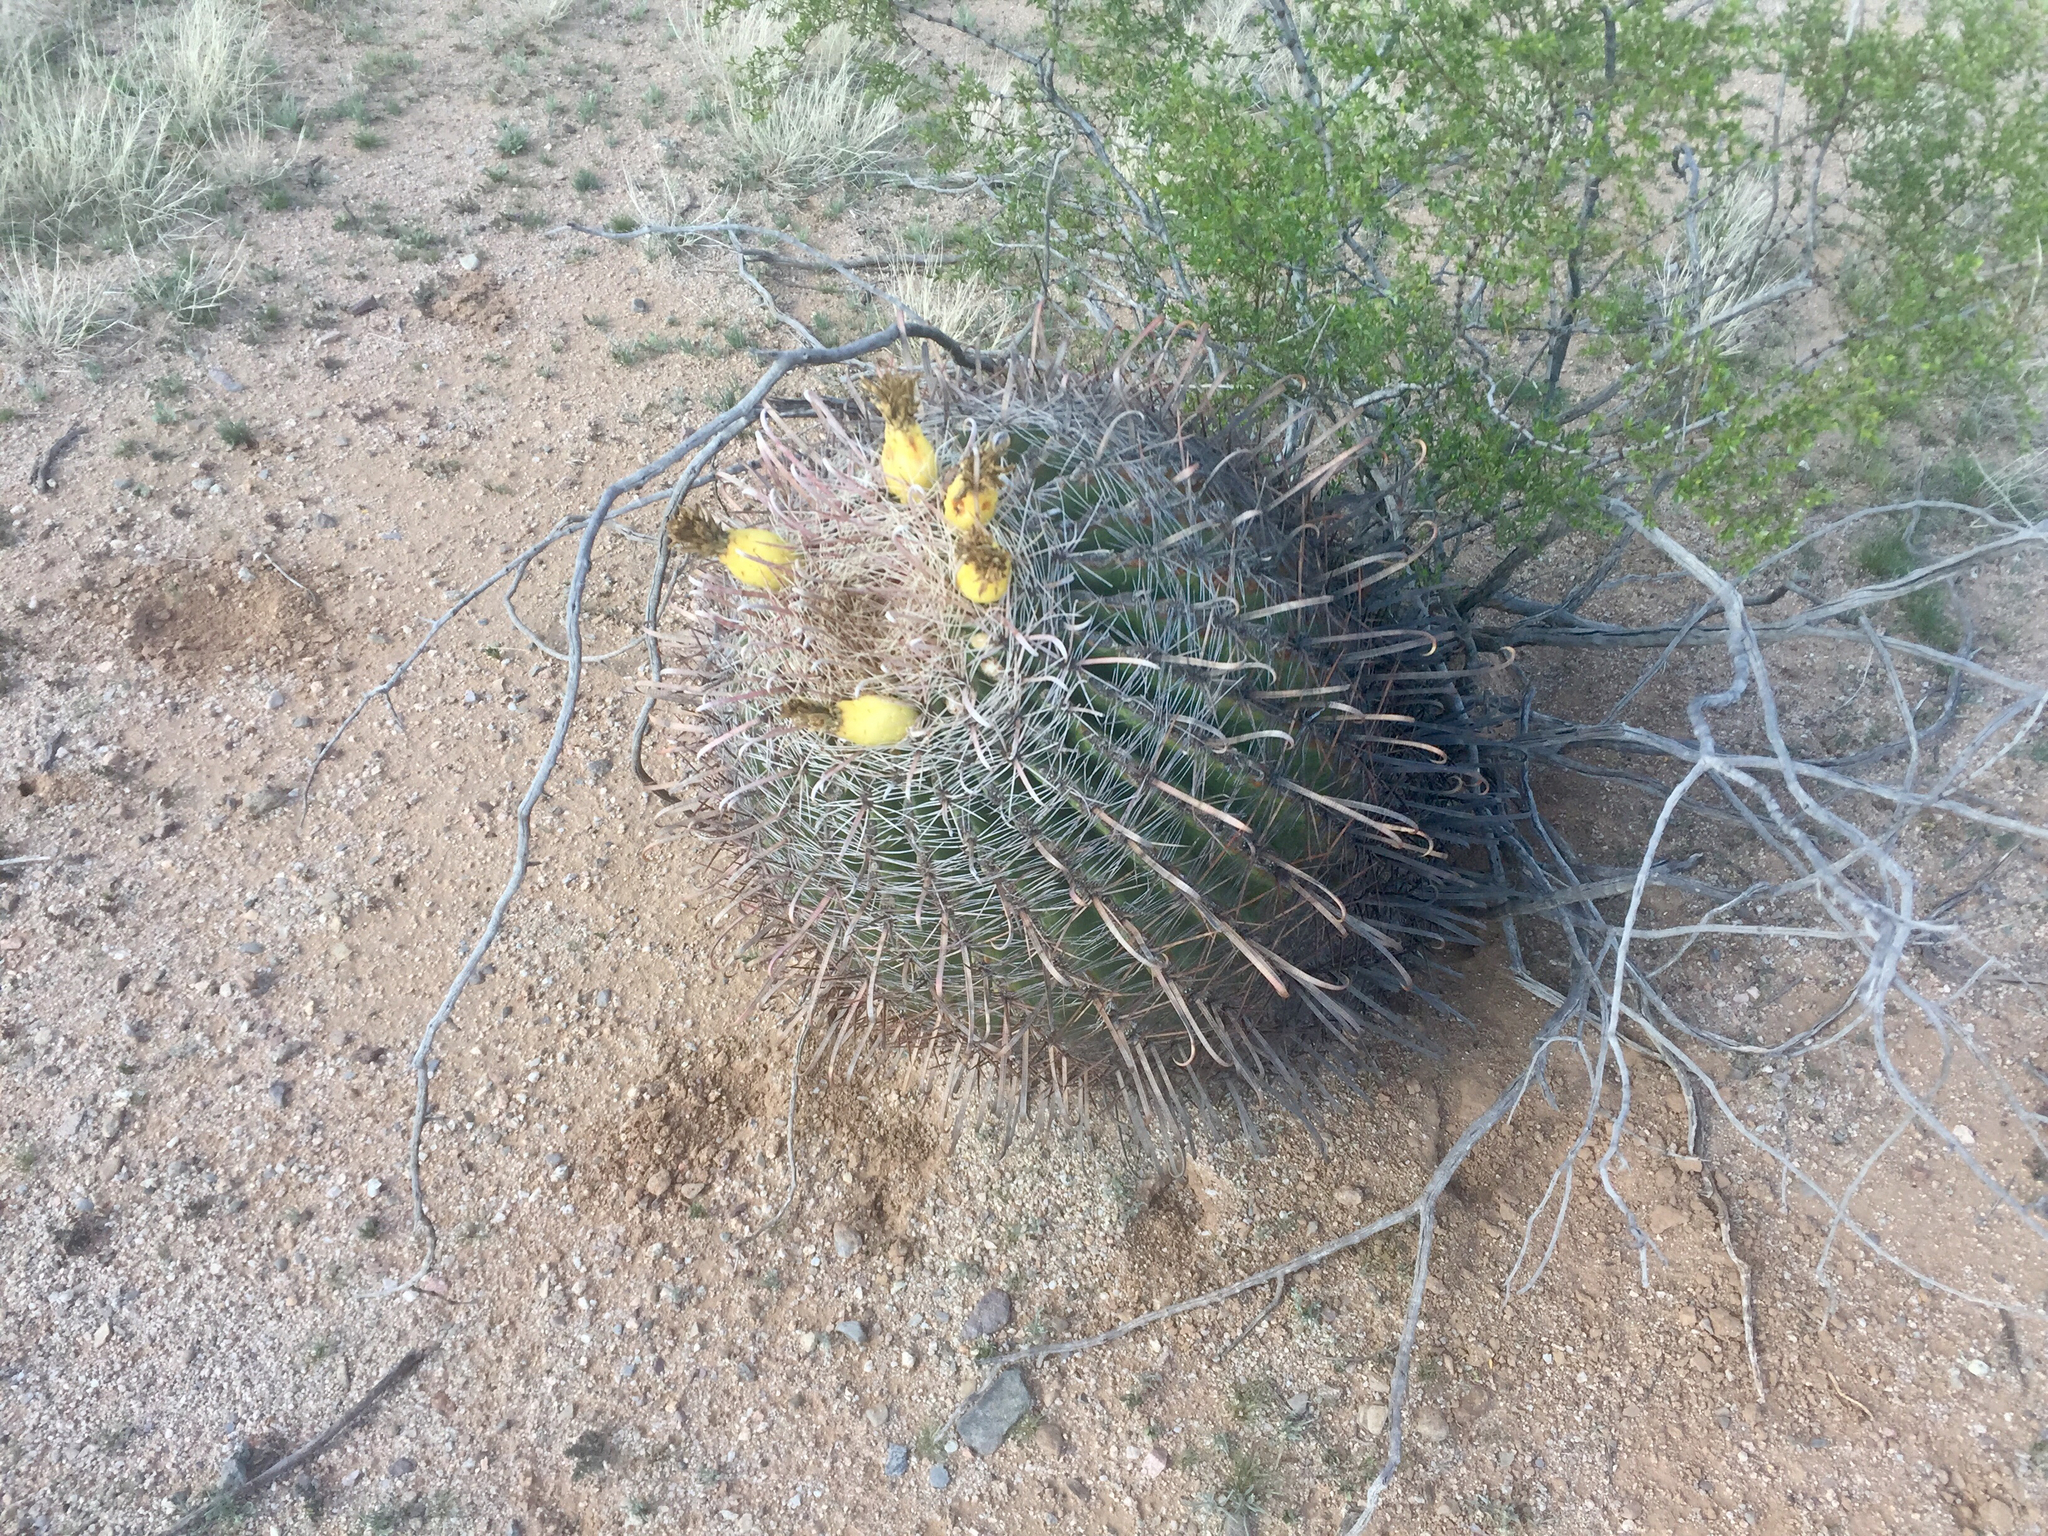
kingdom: Plantae
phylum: Tracheophyta
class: Magnoliopsida
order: Caryophyllales
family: Cactaceae
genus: Ferocactus
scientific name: Ferocactus wislizeni
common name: Candy barrel cactus
